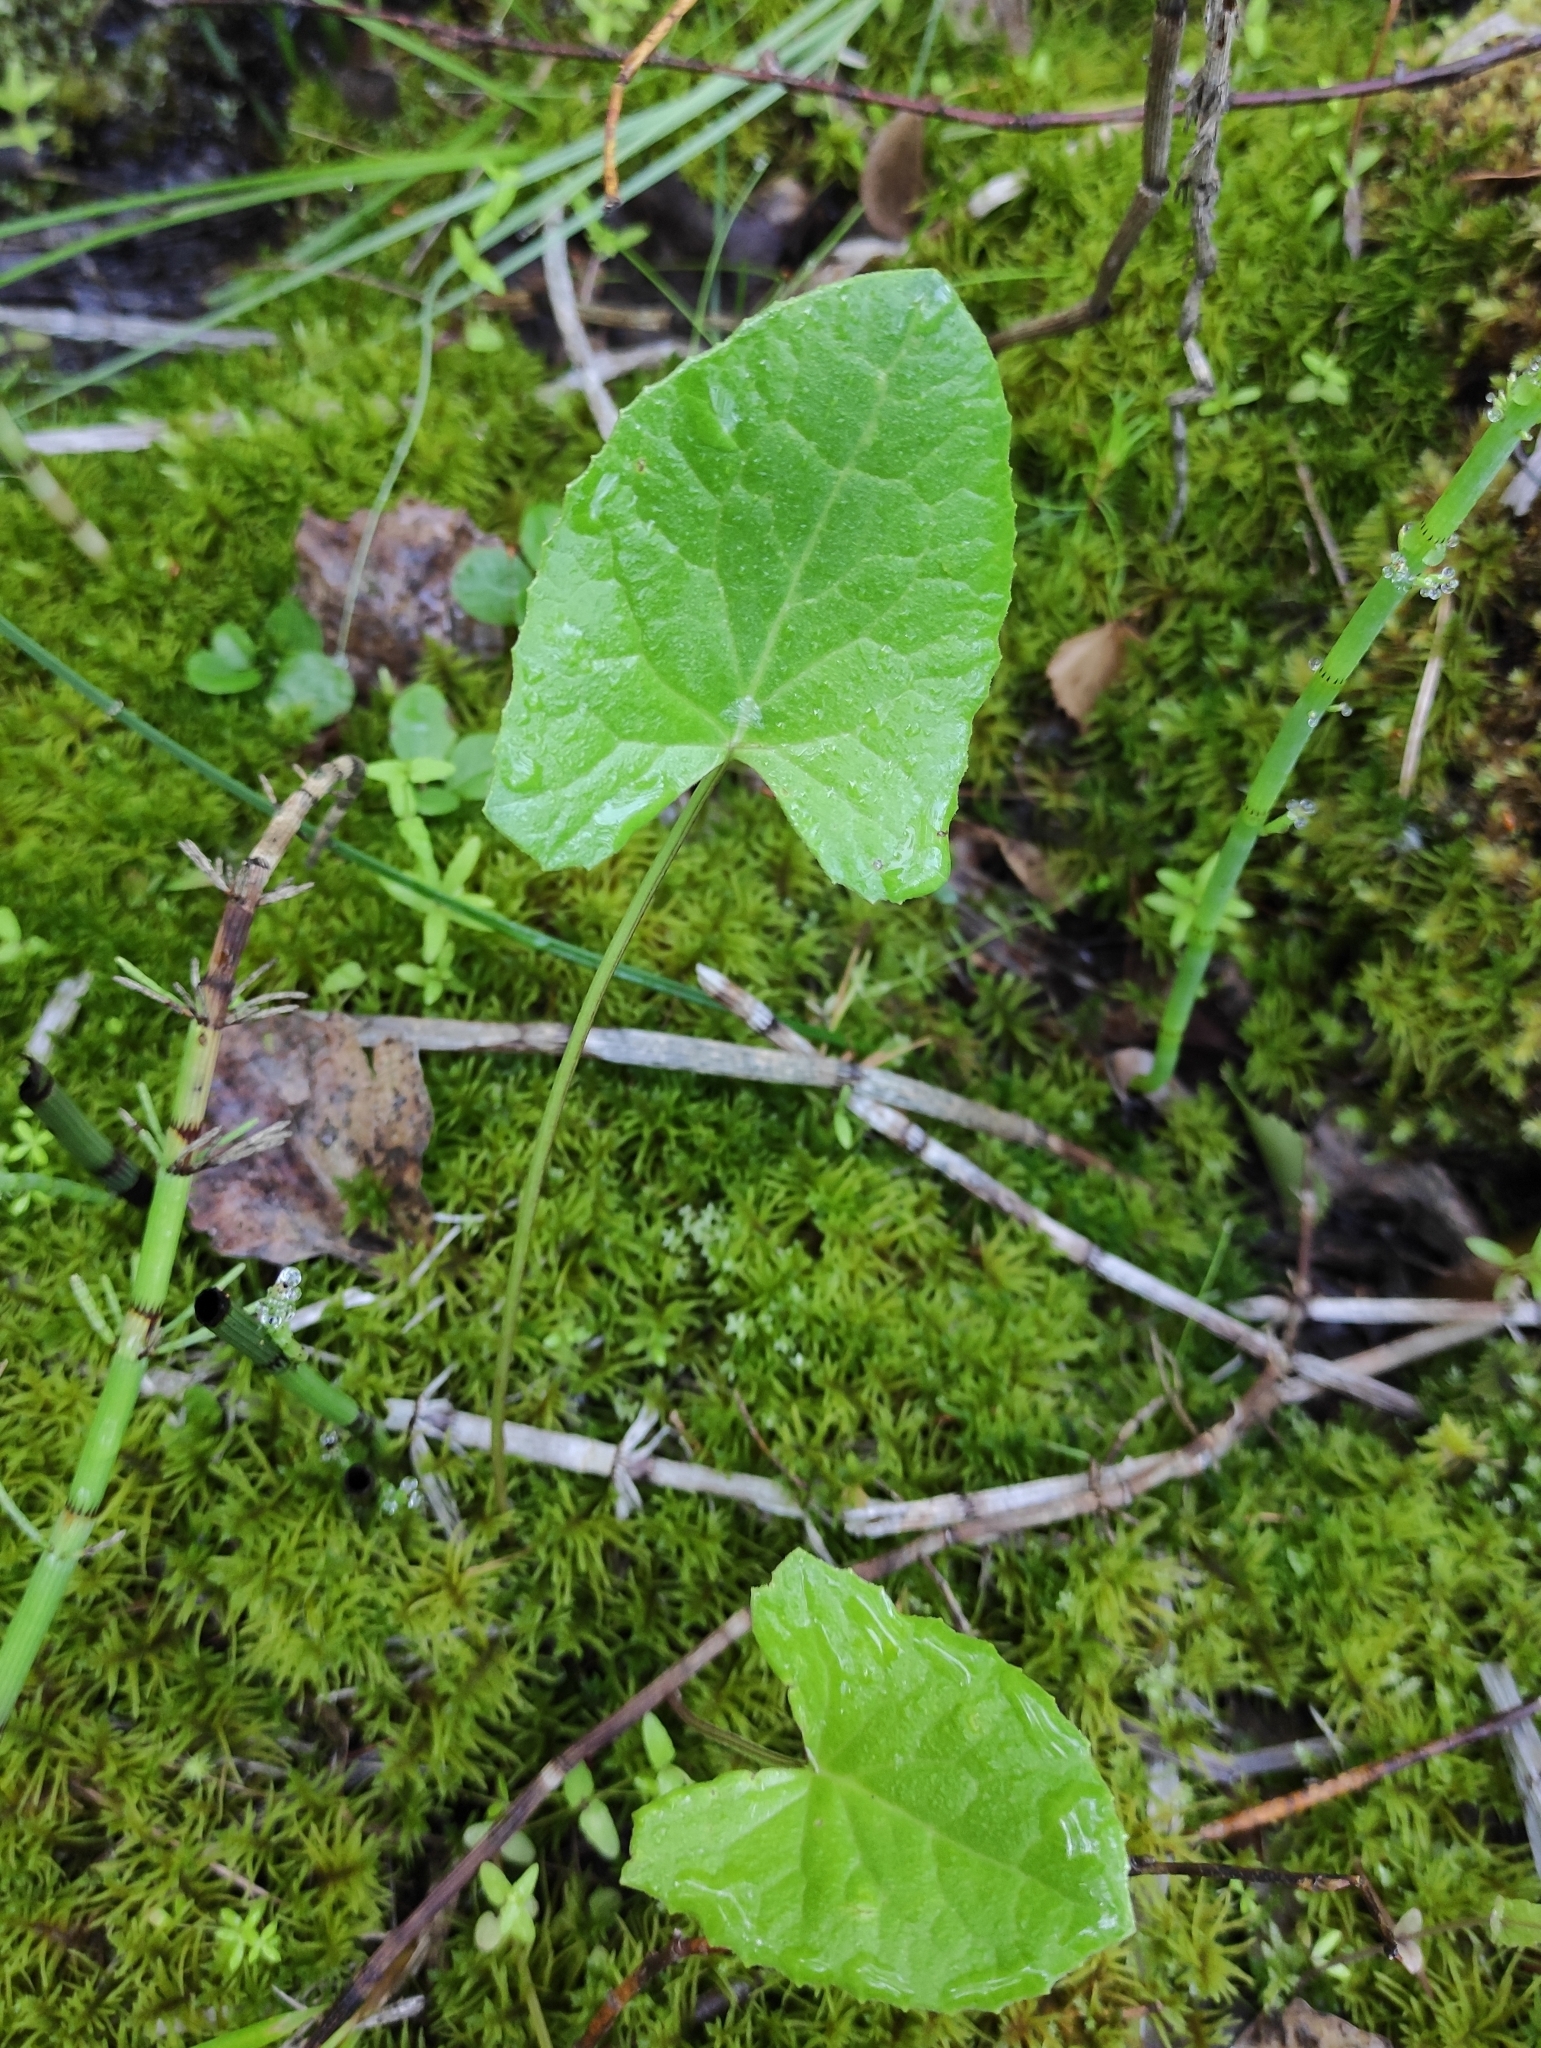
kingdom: Plantae
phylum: Tracheophyta
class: Magnoliopsida
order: Asterales
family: Asteraceae
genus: Ligularia
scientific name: Ligularia sibirica
